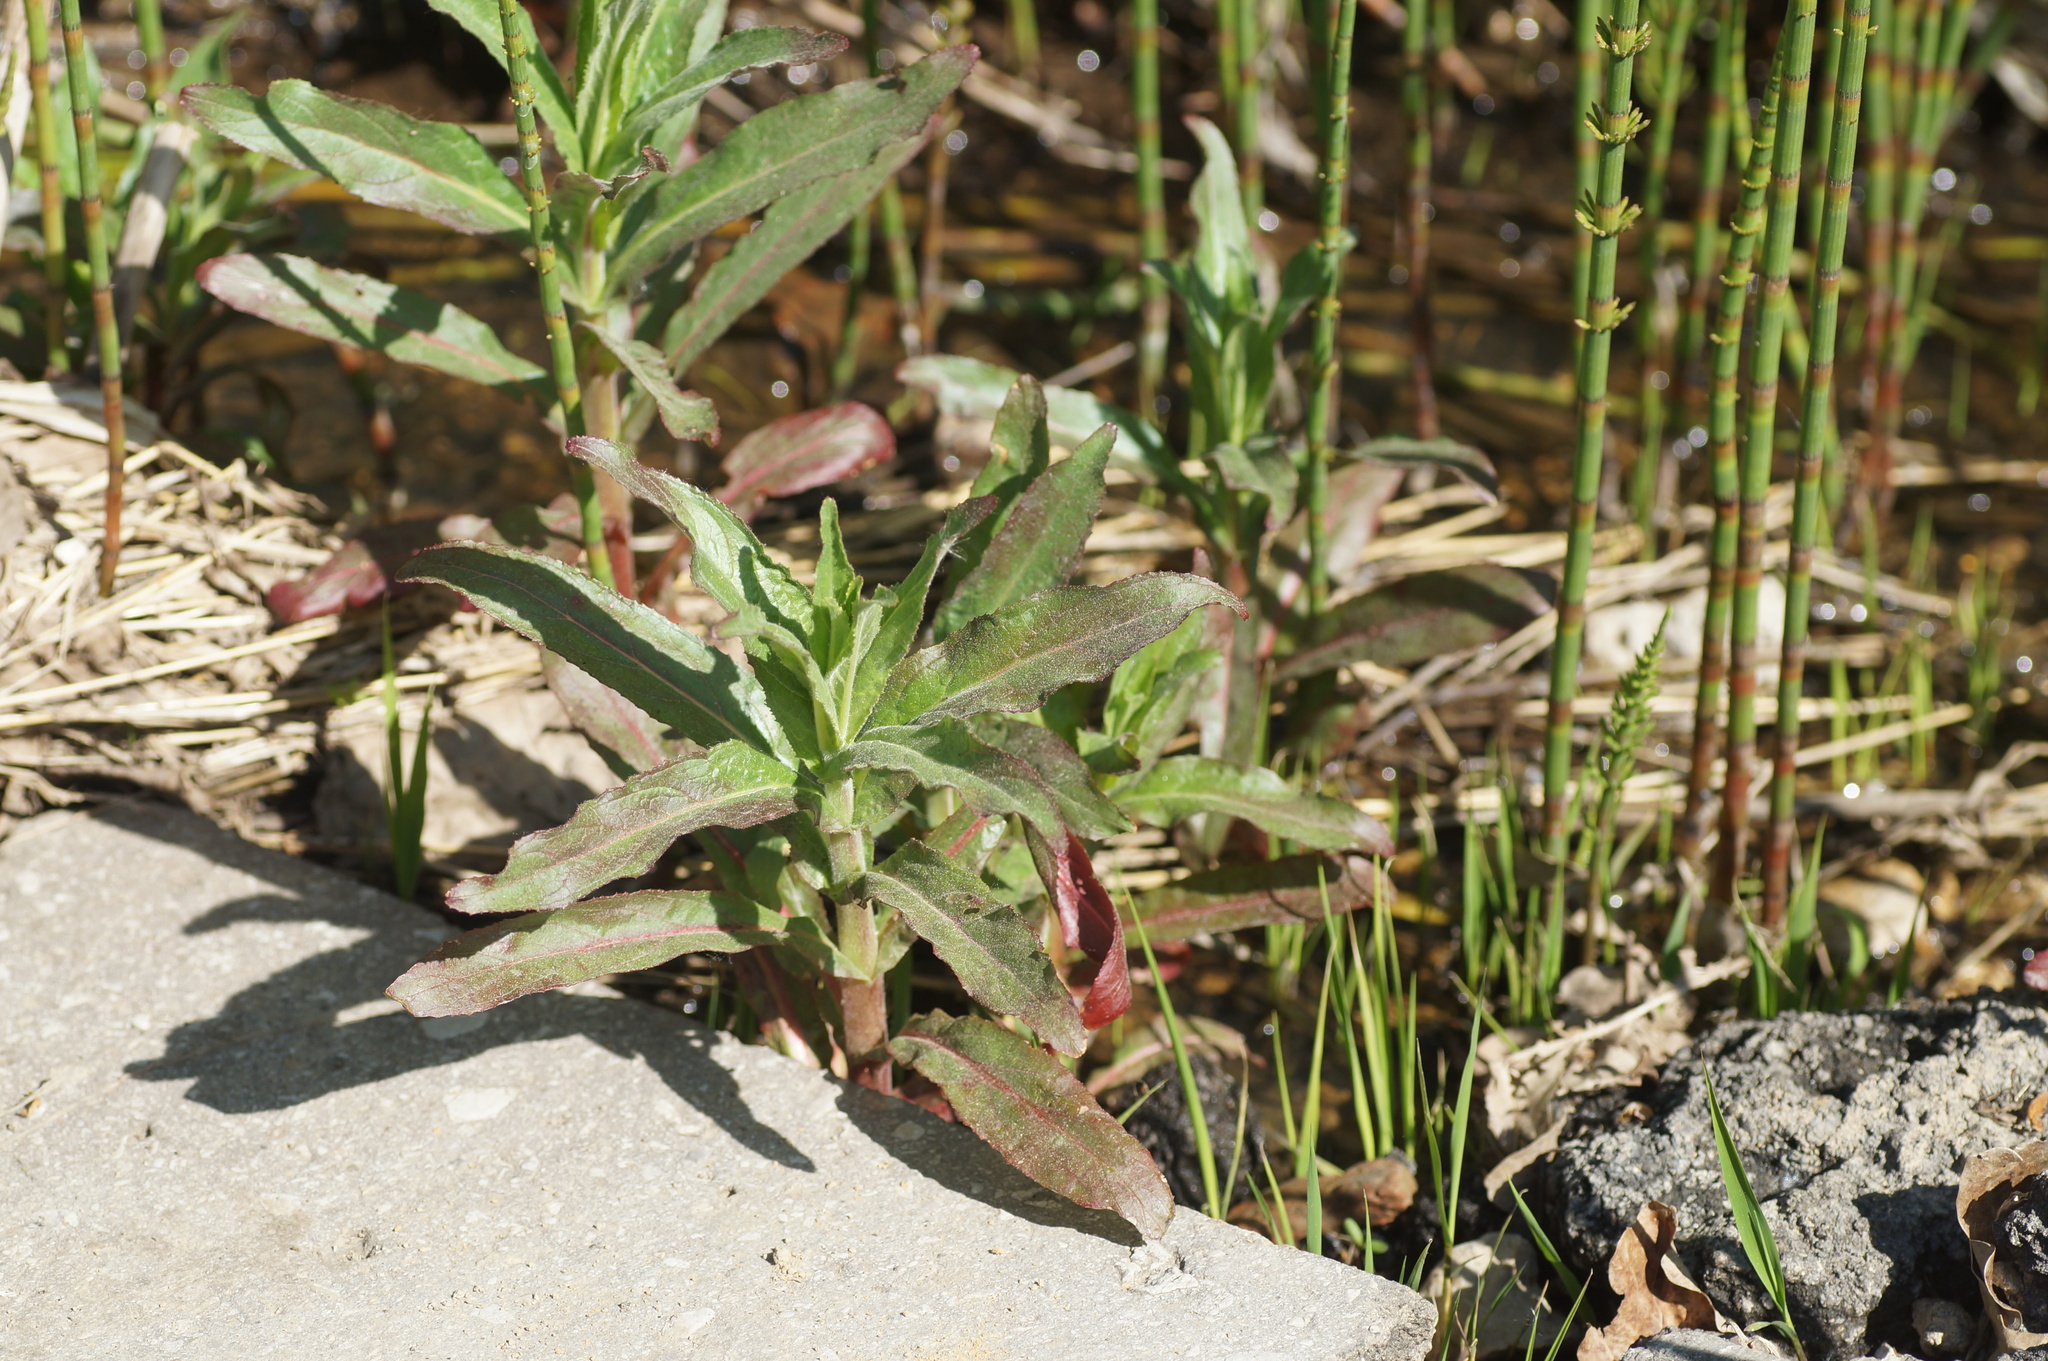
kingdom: Plantae
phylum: Tracheophyta
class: Magnoliopsida
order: Myrtales
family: Onagraceae
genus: Epilobium
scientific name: Epilobium hirsutum
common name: Great willowherb
